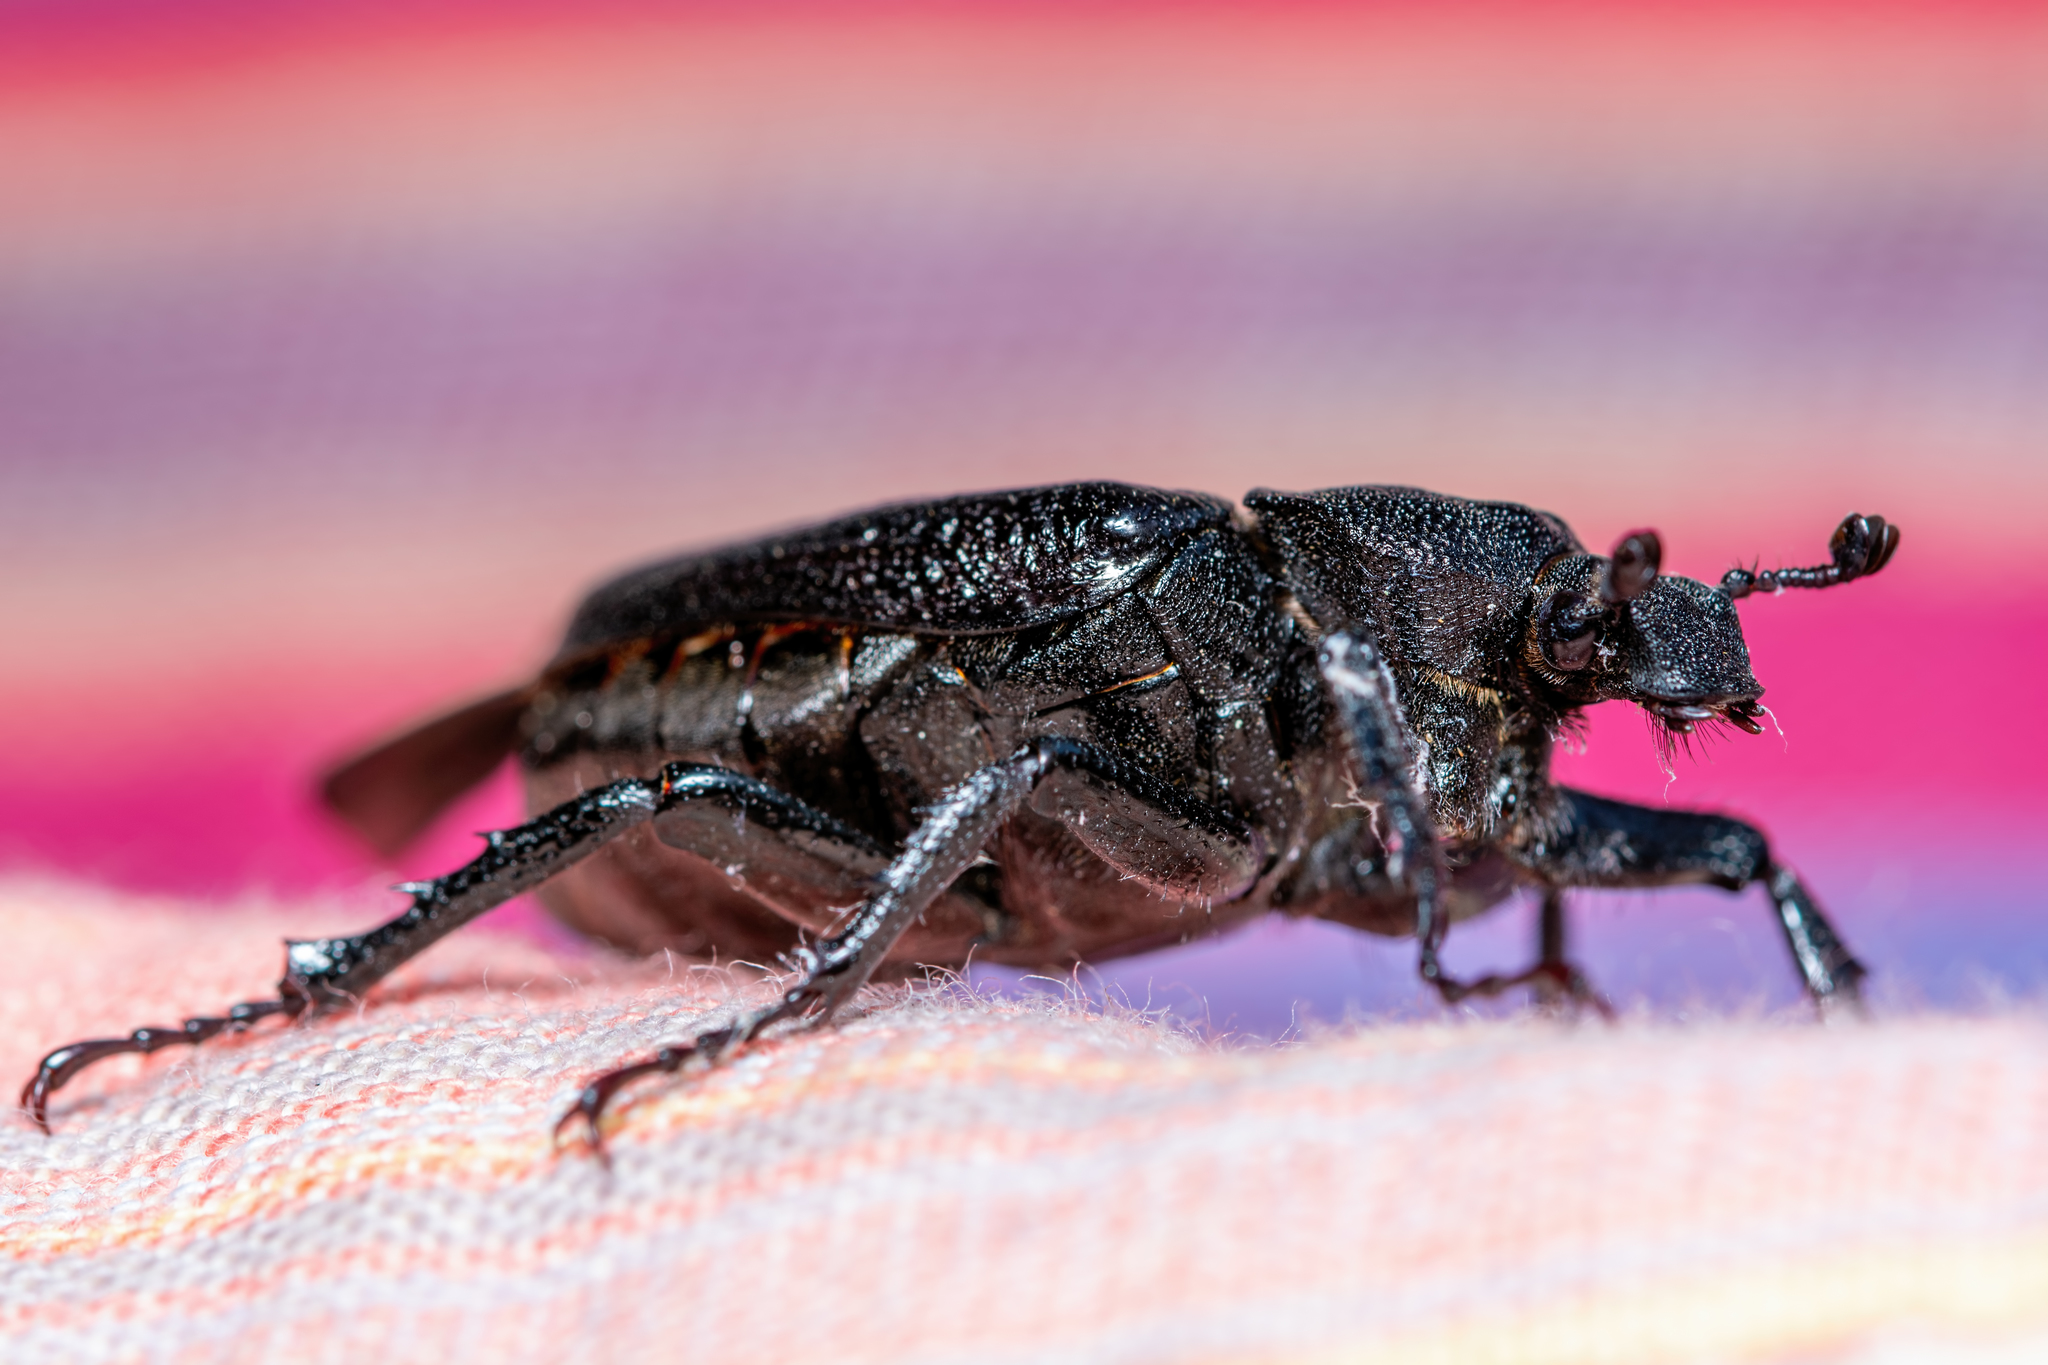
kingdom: Animalia
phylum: Arthropoda
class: Insecta
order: Coleoptera
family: Scarabaeidae
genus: Osmoderma
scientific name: Osmoderma scabra
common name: Rough hermit beetle
